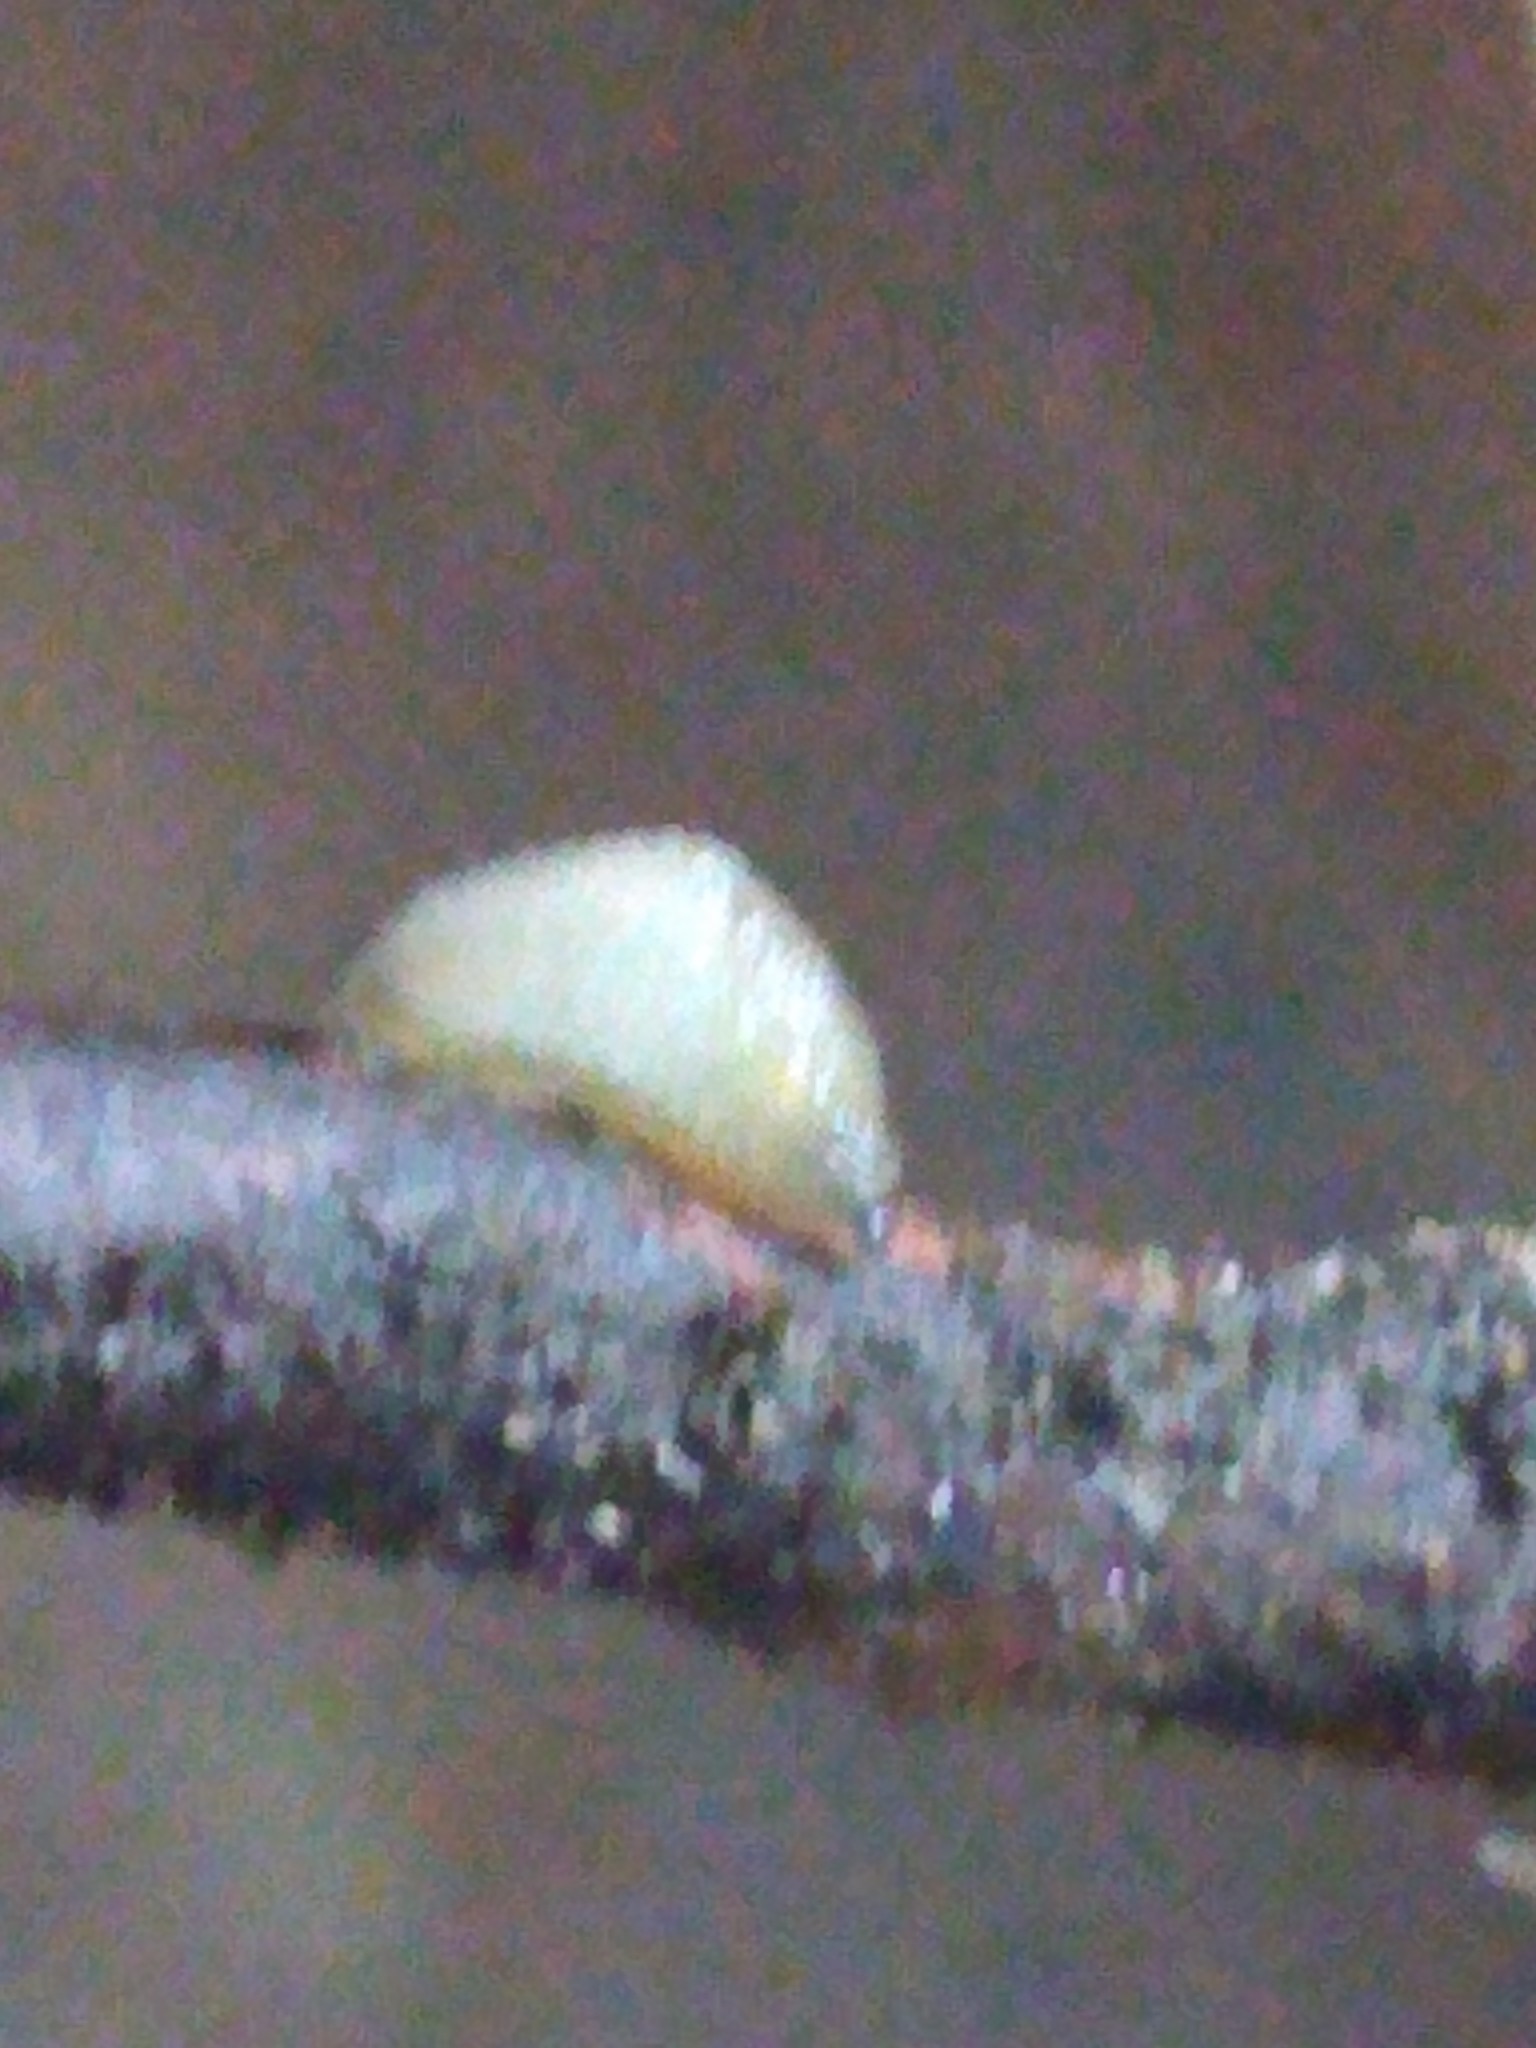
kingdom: Animalia
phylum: Mollusca
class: Gastropoda
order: Stylommatophora
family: Arionidae
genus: Arion
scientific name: Arion intermedius
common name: Hedgehog slug
